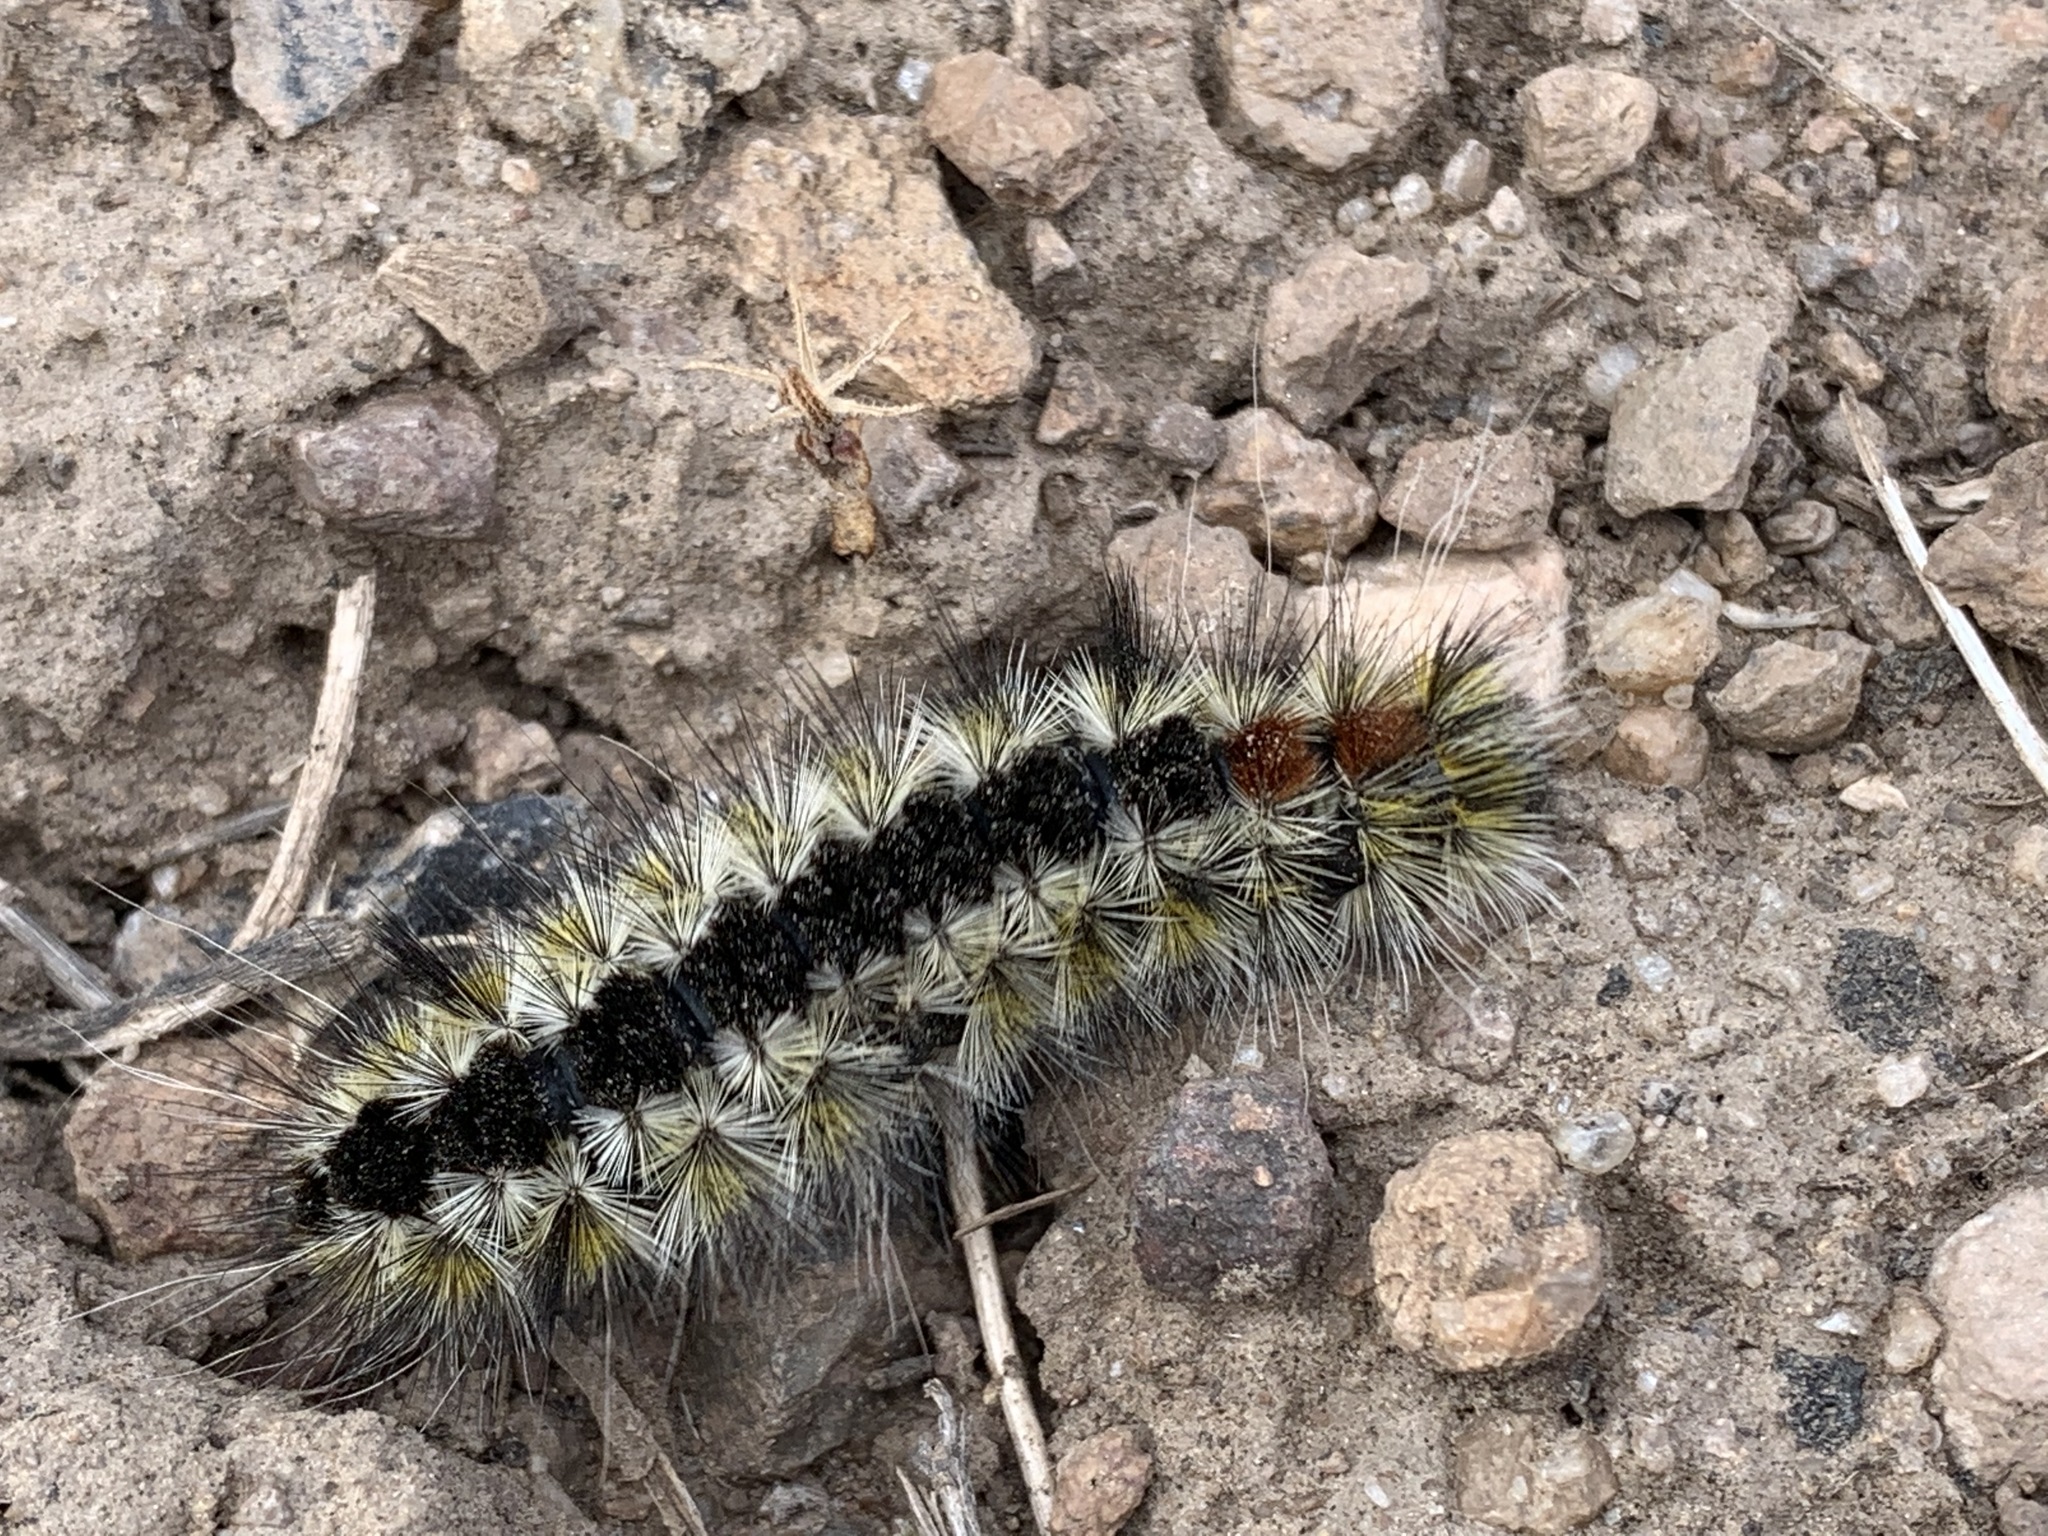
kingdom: Animalia
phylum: Arthropoda
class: Insecta
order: Lepidoptera
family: Erebidae
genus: Lophocampa
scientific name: Lophocampa ingens
